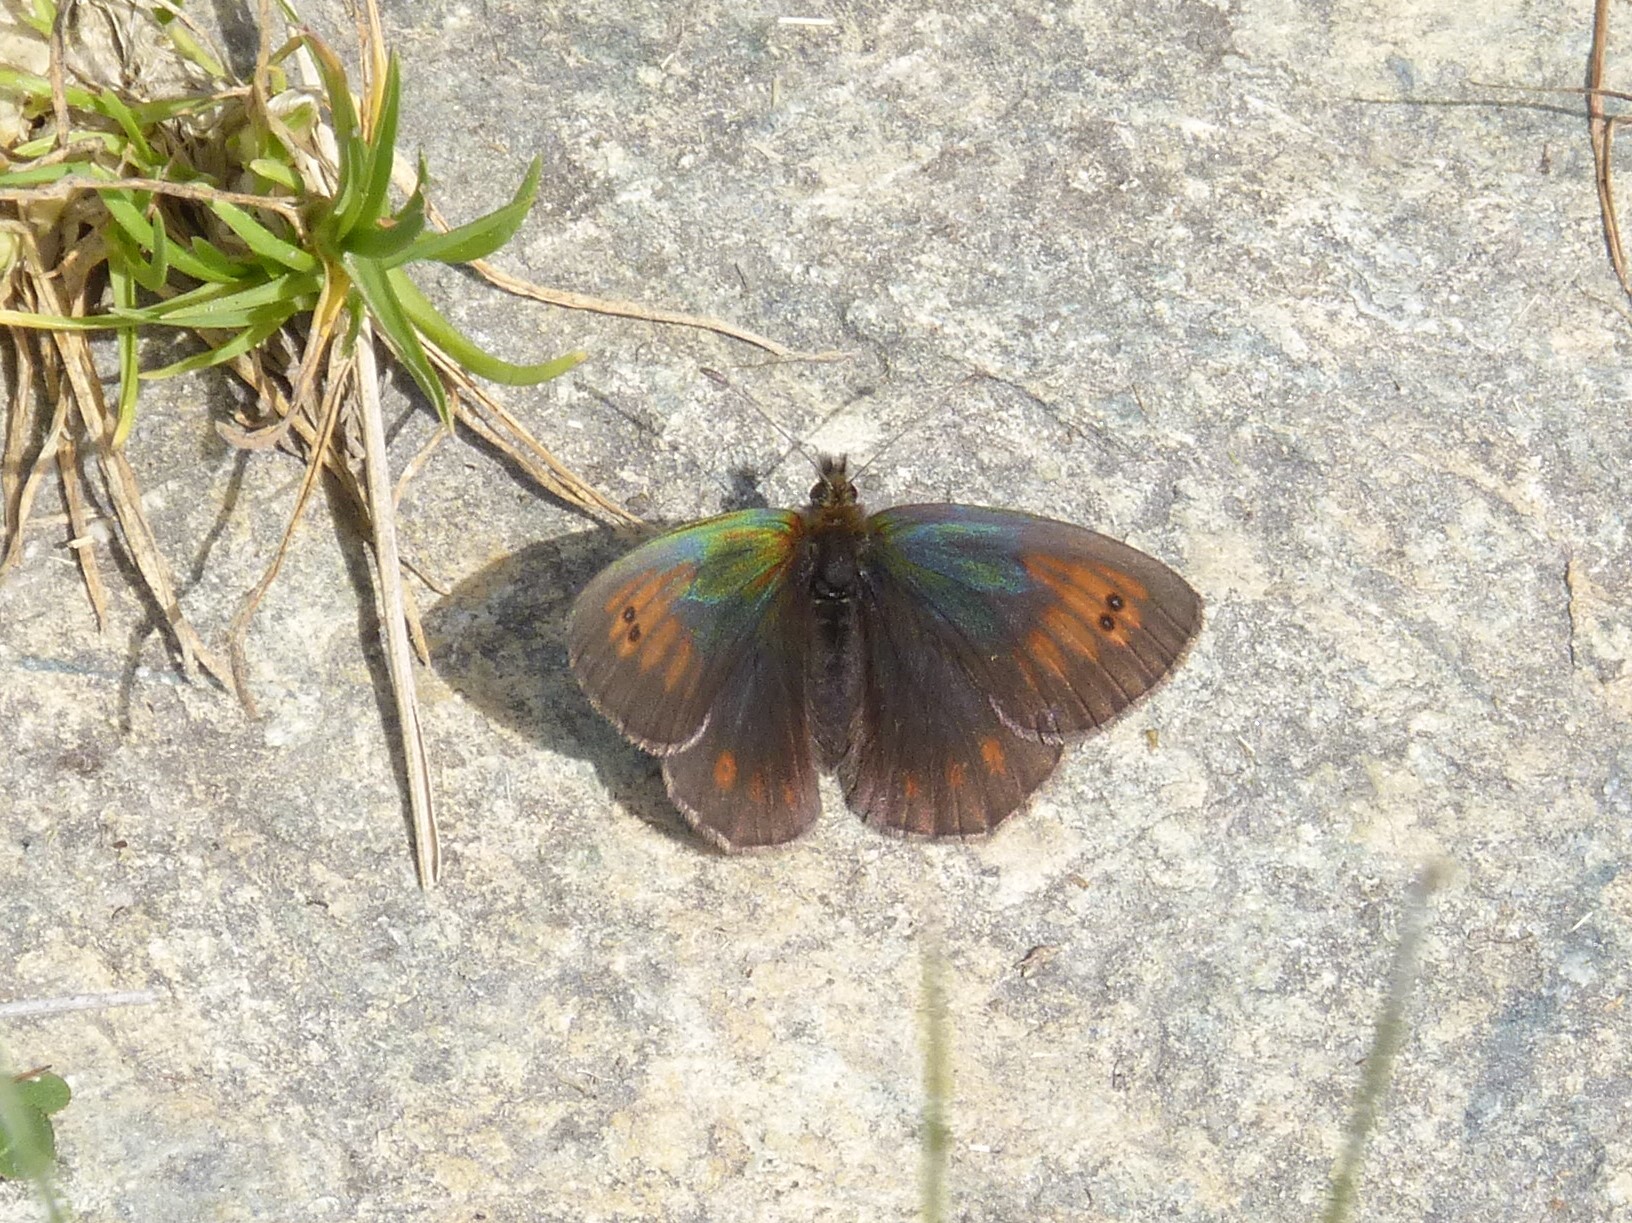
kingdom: Animalia
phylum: Arthropoda
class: Insecta
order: Lepidoptera
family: Nymphalidae
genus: Erebia
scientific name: Erebia tyndarus
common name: Swiss brassy ringlet
